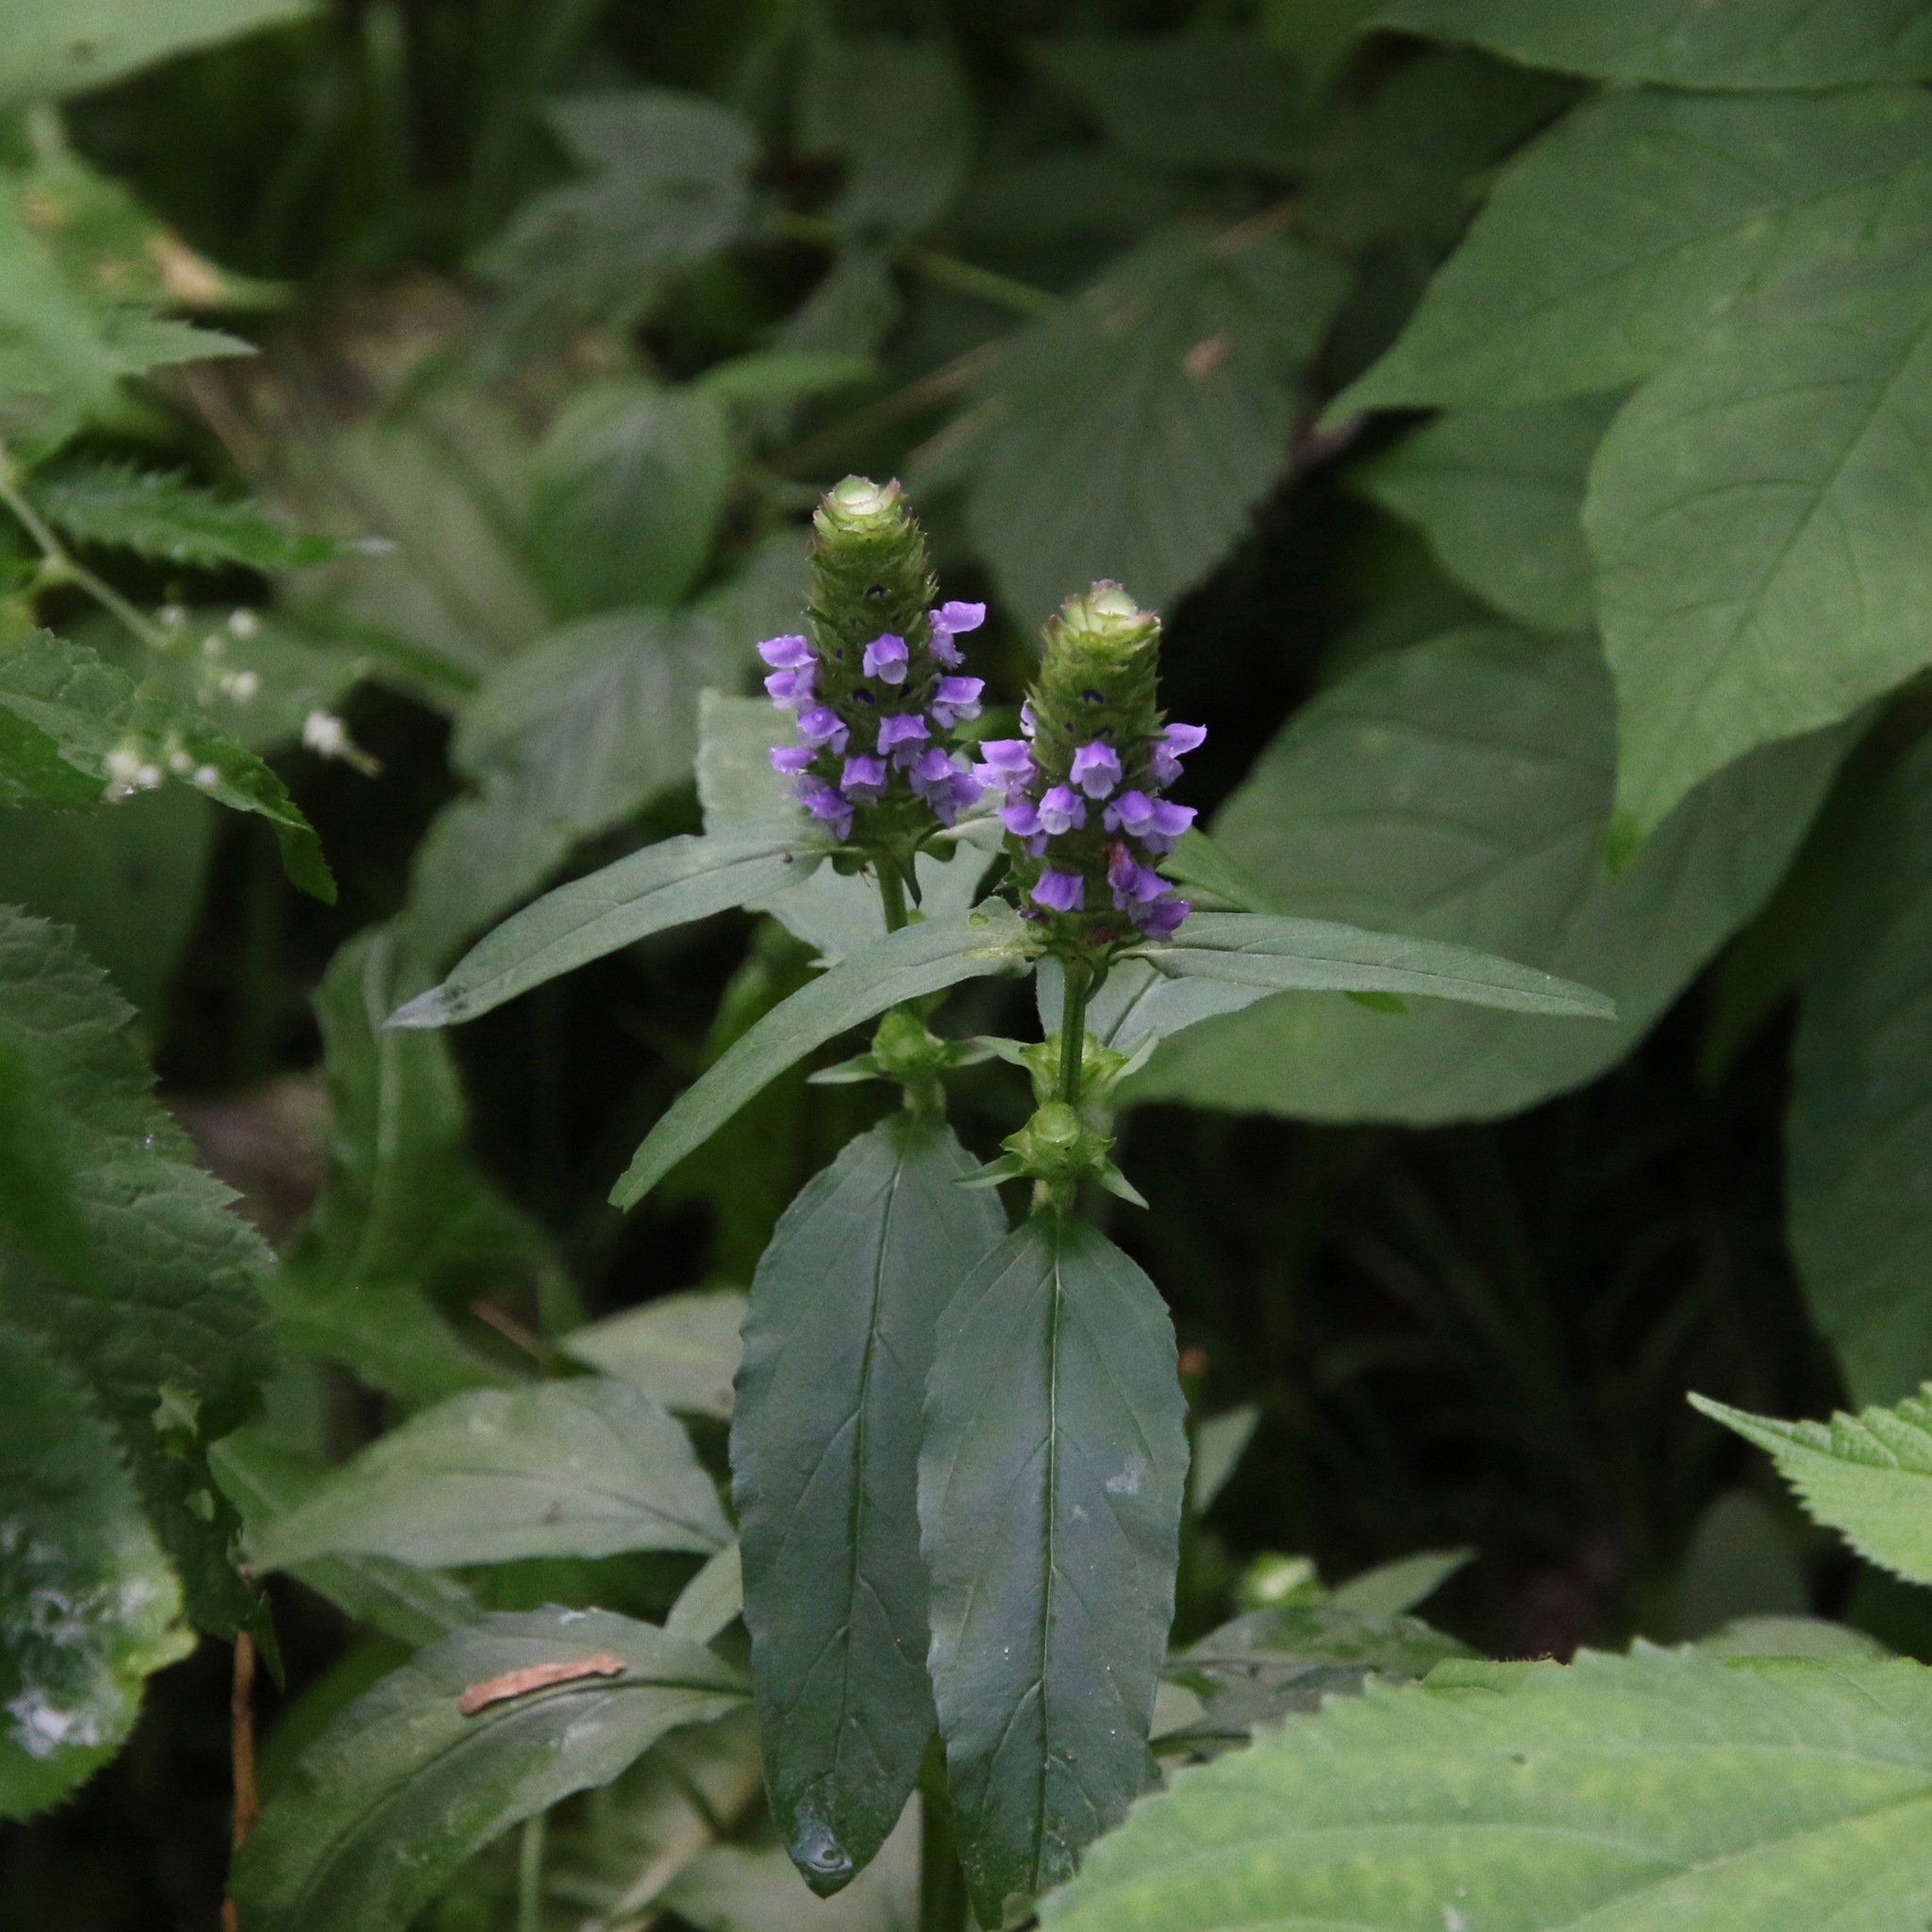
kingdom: Plantae
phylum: Tracheophyta
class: Magnoliopsida
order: Lamiales
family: Lamiaceae
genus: Prunella
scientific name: Prunella vulgaris
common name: Heal-all
